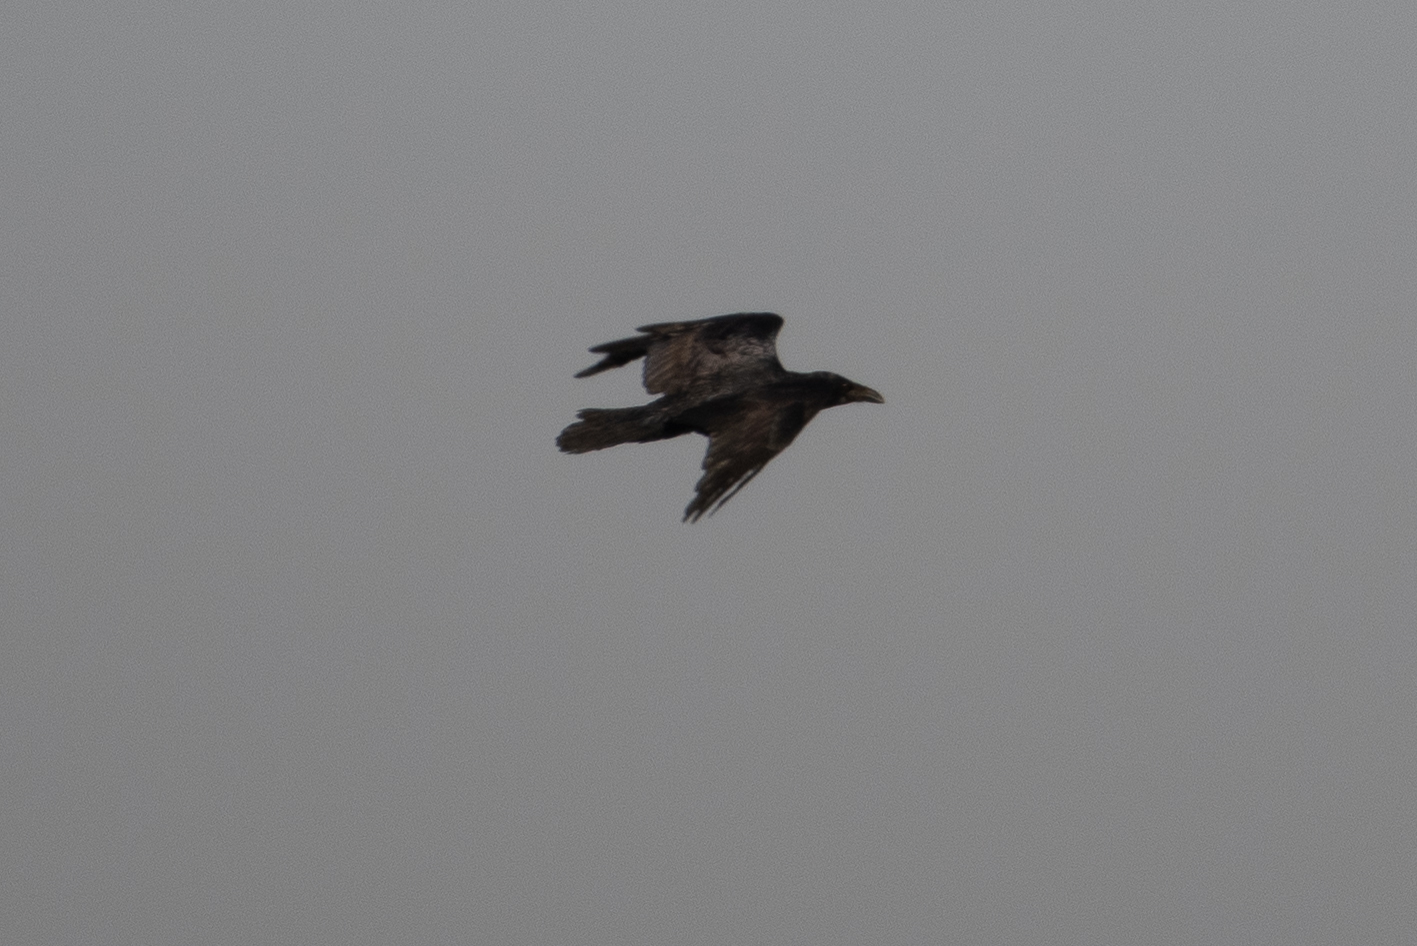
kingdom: Animalia
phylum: Chordata
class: Aves
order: Passeriformes
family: Corvidae
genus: Corvus
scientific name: Corvus corax
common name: Common raven
